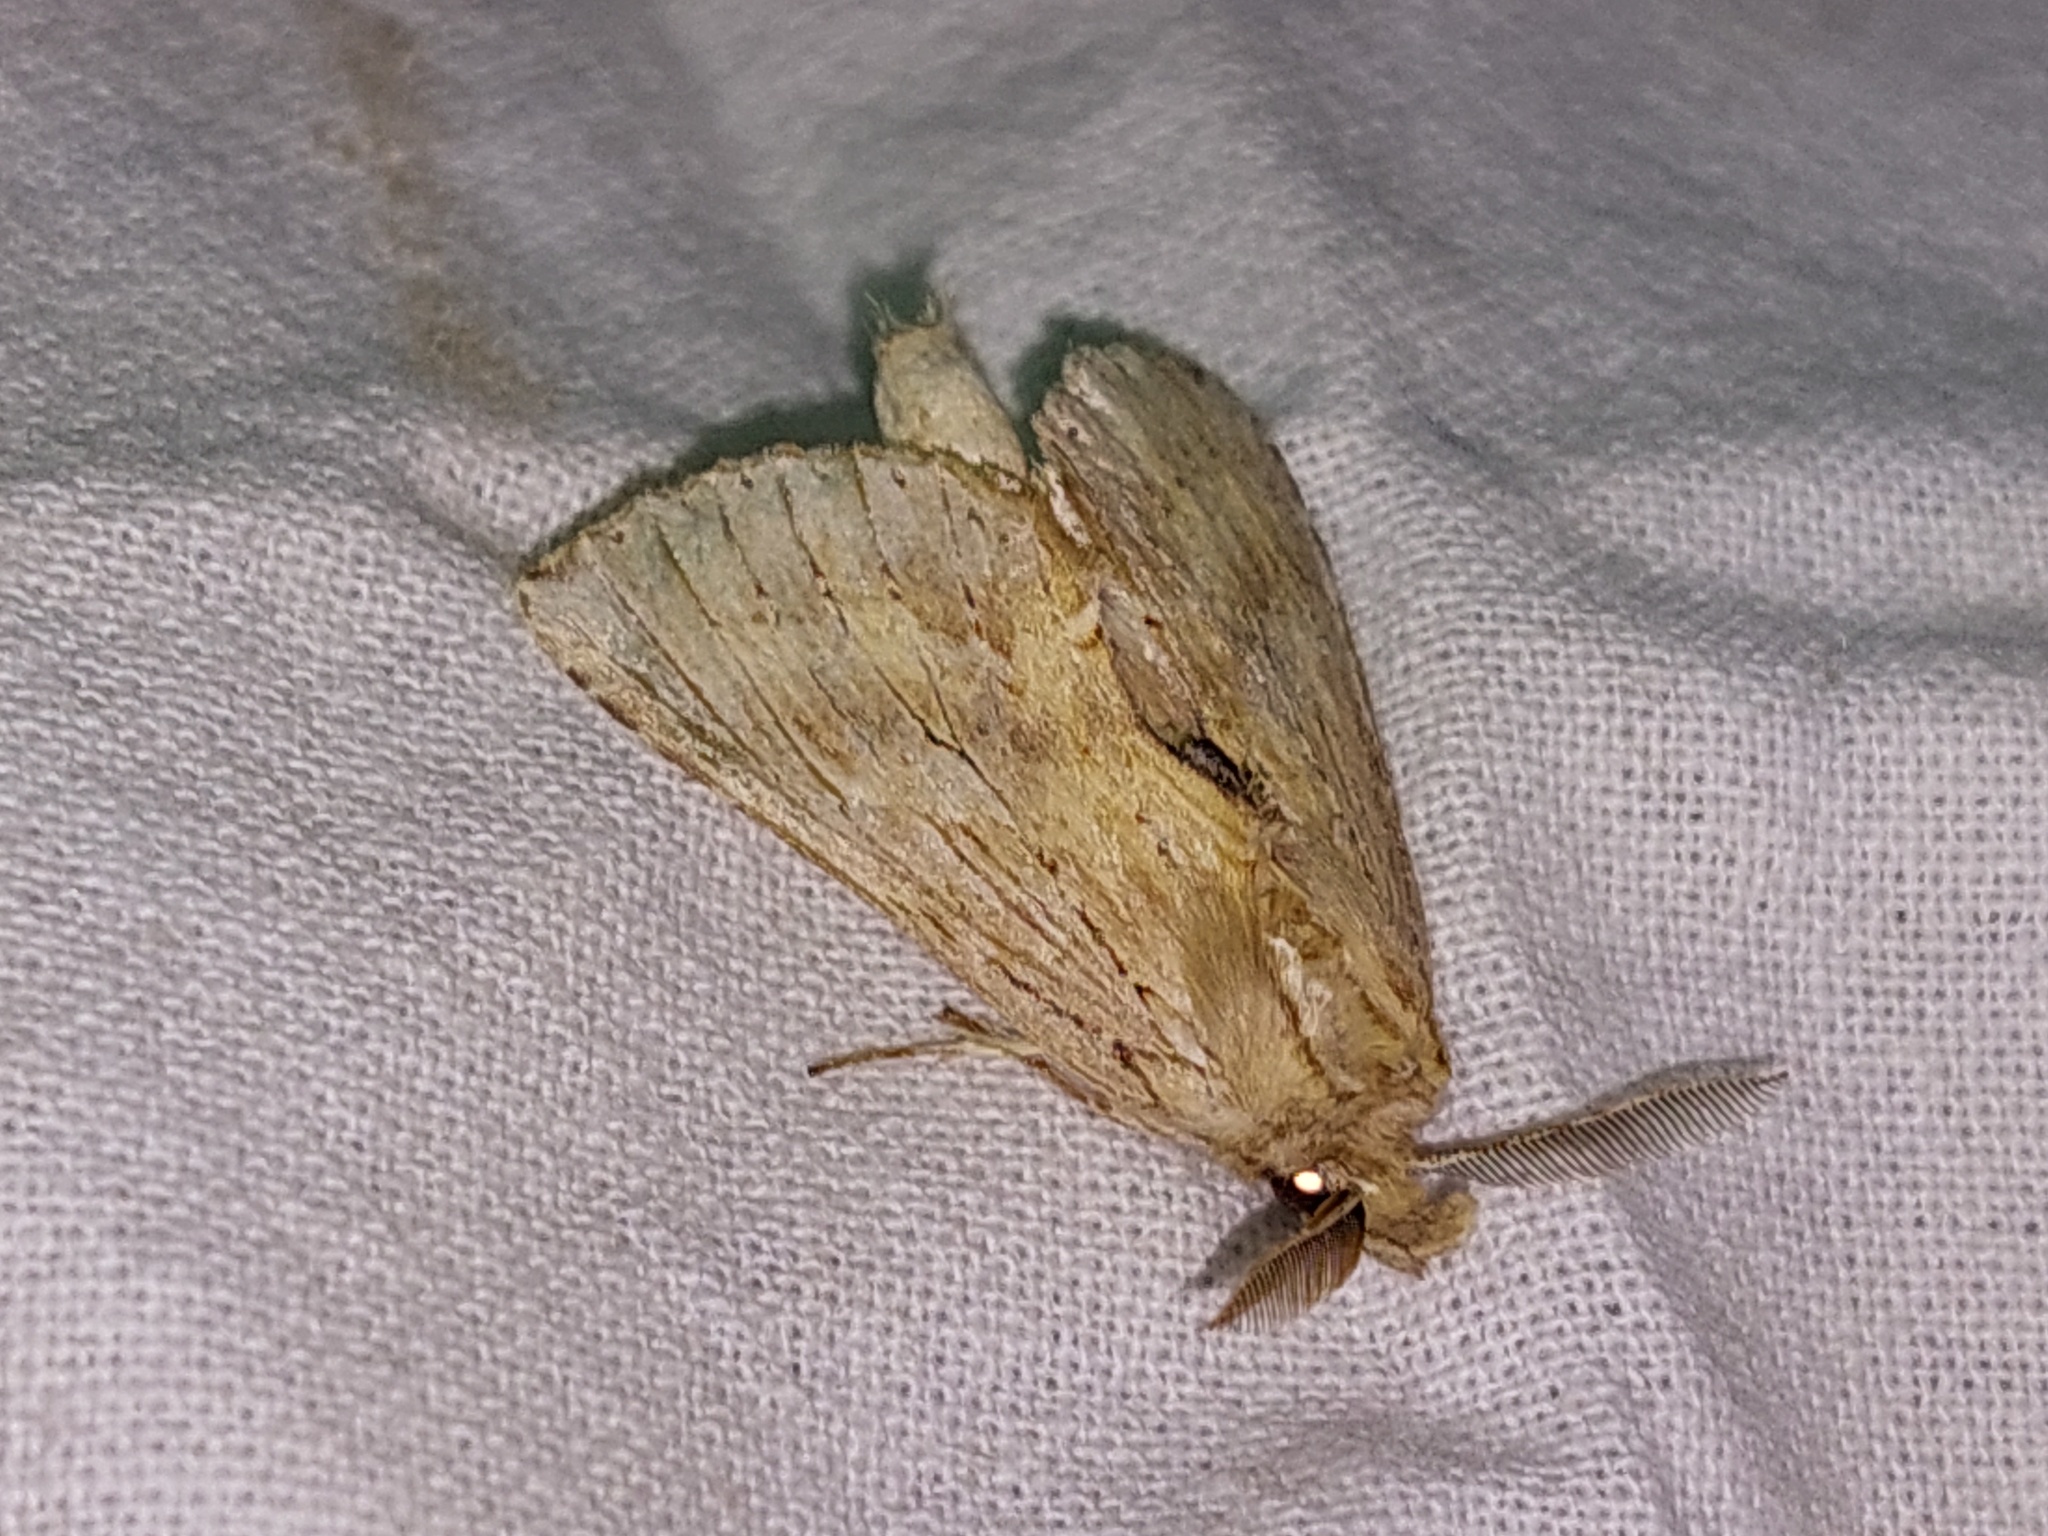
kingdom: Animalia
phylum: Arthropoda
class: Insecta
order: Lepidoptera
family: Notodontidae
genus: Pterostoma
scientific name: Pterostoma palpina
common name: Pale prominent
